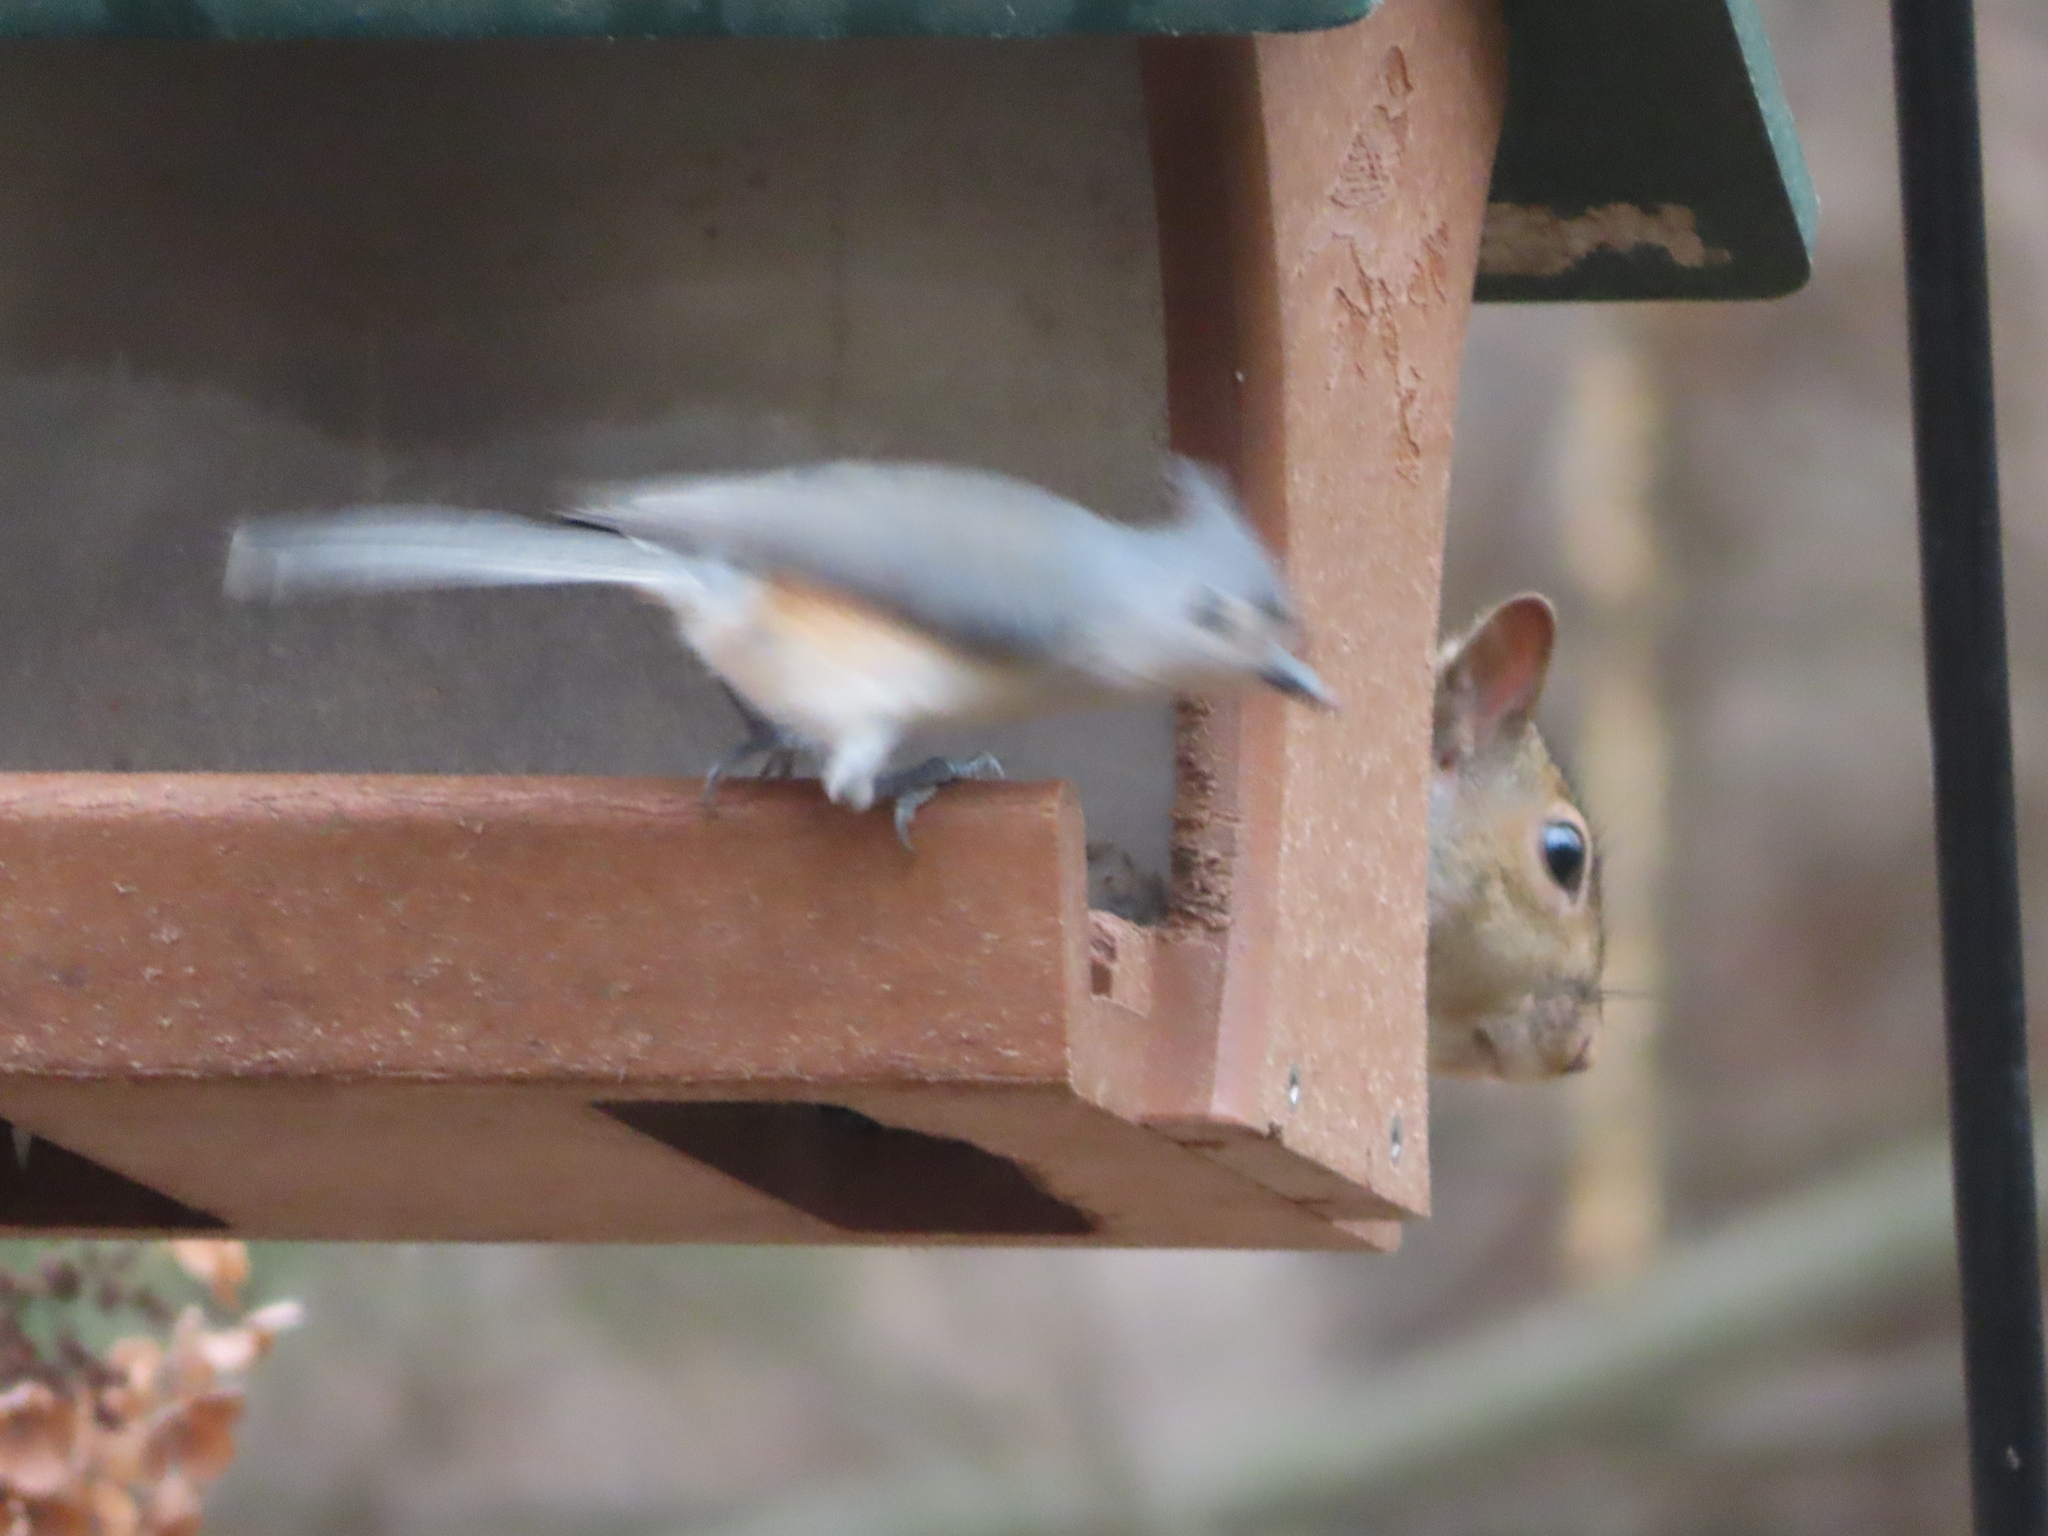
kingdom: Animalia
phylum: Chordata
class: Aves
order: Passeriformes
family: Paridae
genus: Baeolophus
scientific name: Baeolophus bicolor
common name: Tufted titmouse
